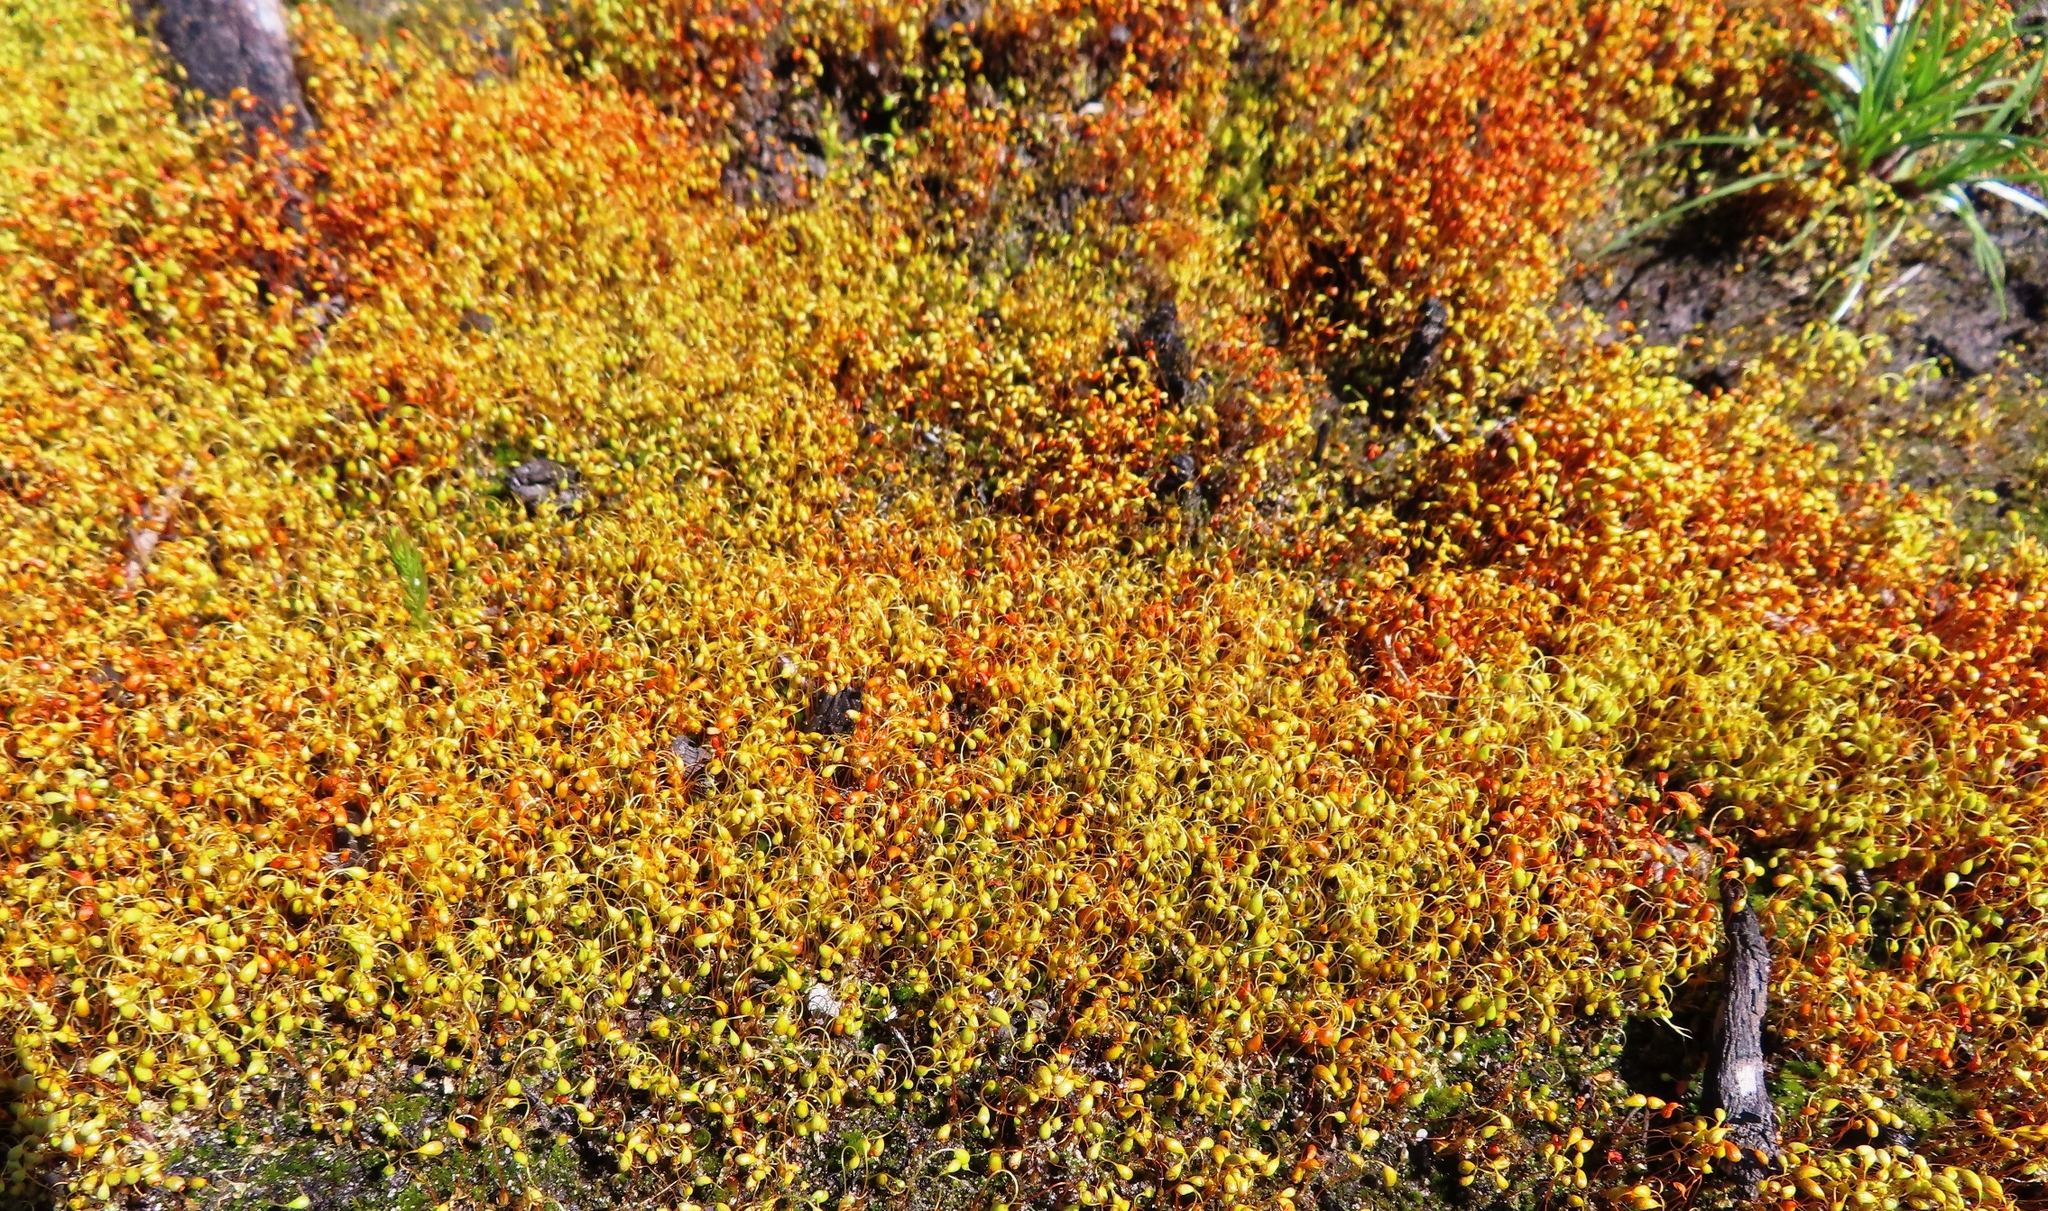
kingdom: Plantae
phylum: Bryophyta
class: Bryopsida
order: Dicranales
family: Ditrichaceae
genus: Ceratodon
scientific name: Ceratodon purpureus
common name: Redshank
